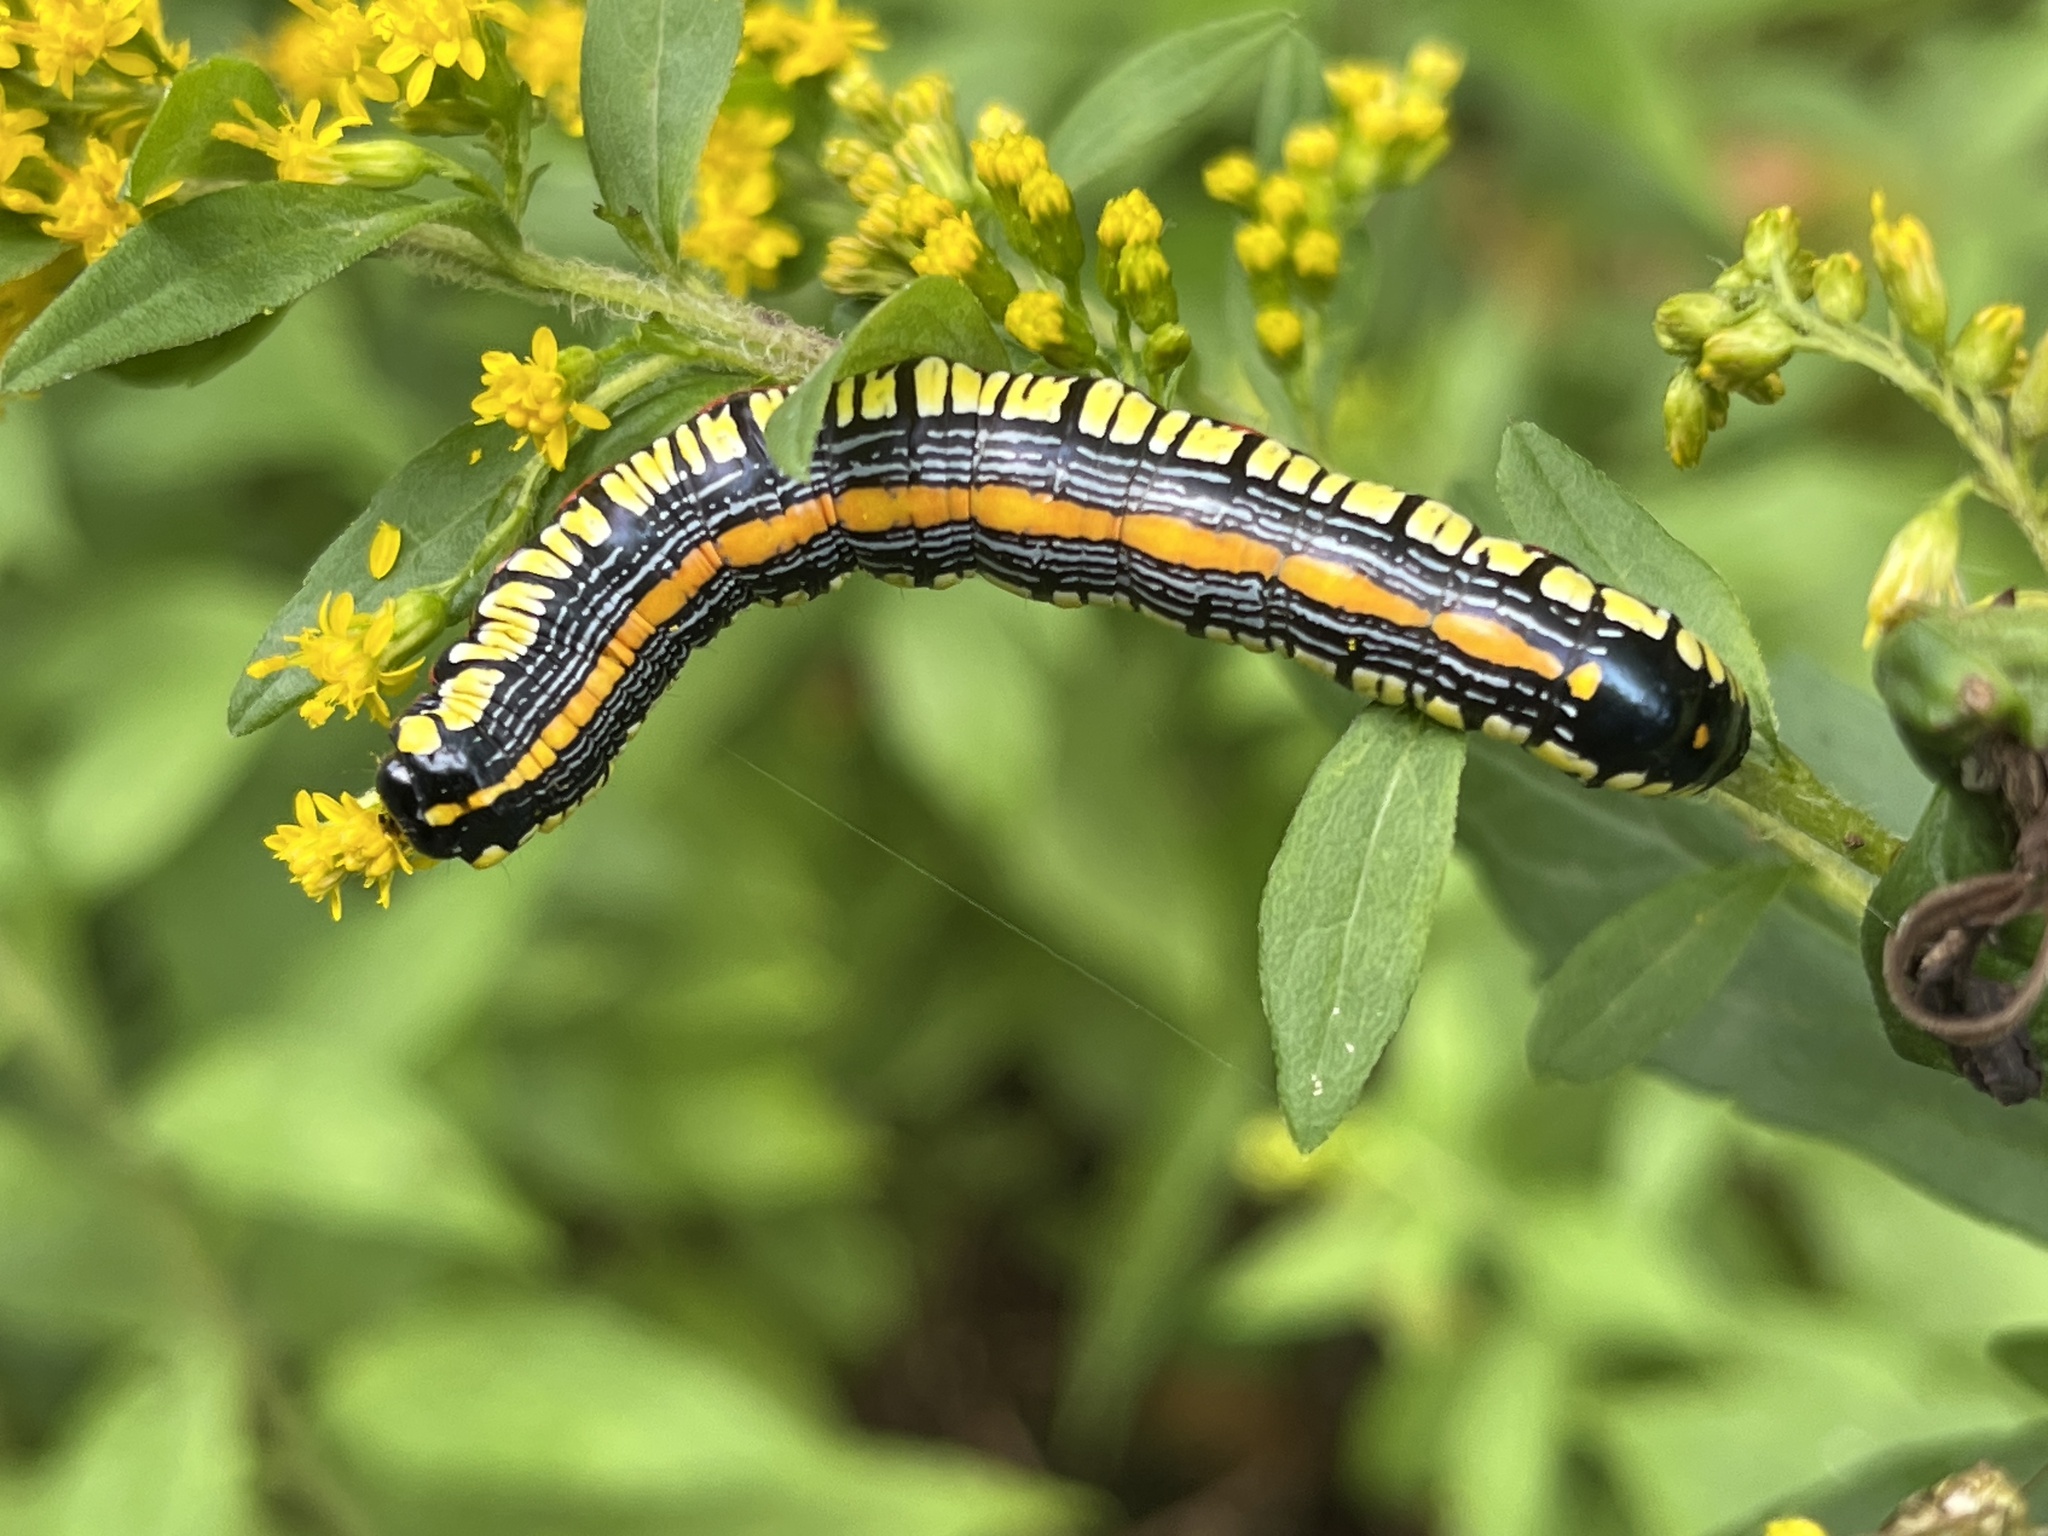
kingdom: Animalia
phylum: Arthropoda
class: Insecta
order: Lepidoptera
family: Noctuidae
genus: Cucullia
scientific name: Cucullia convexipennis
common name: Brown-hooded owlet
